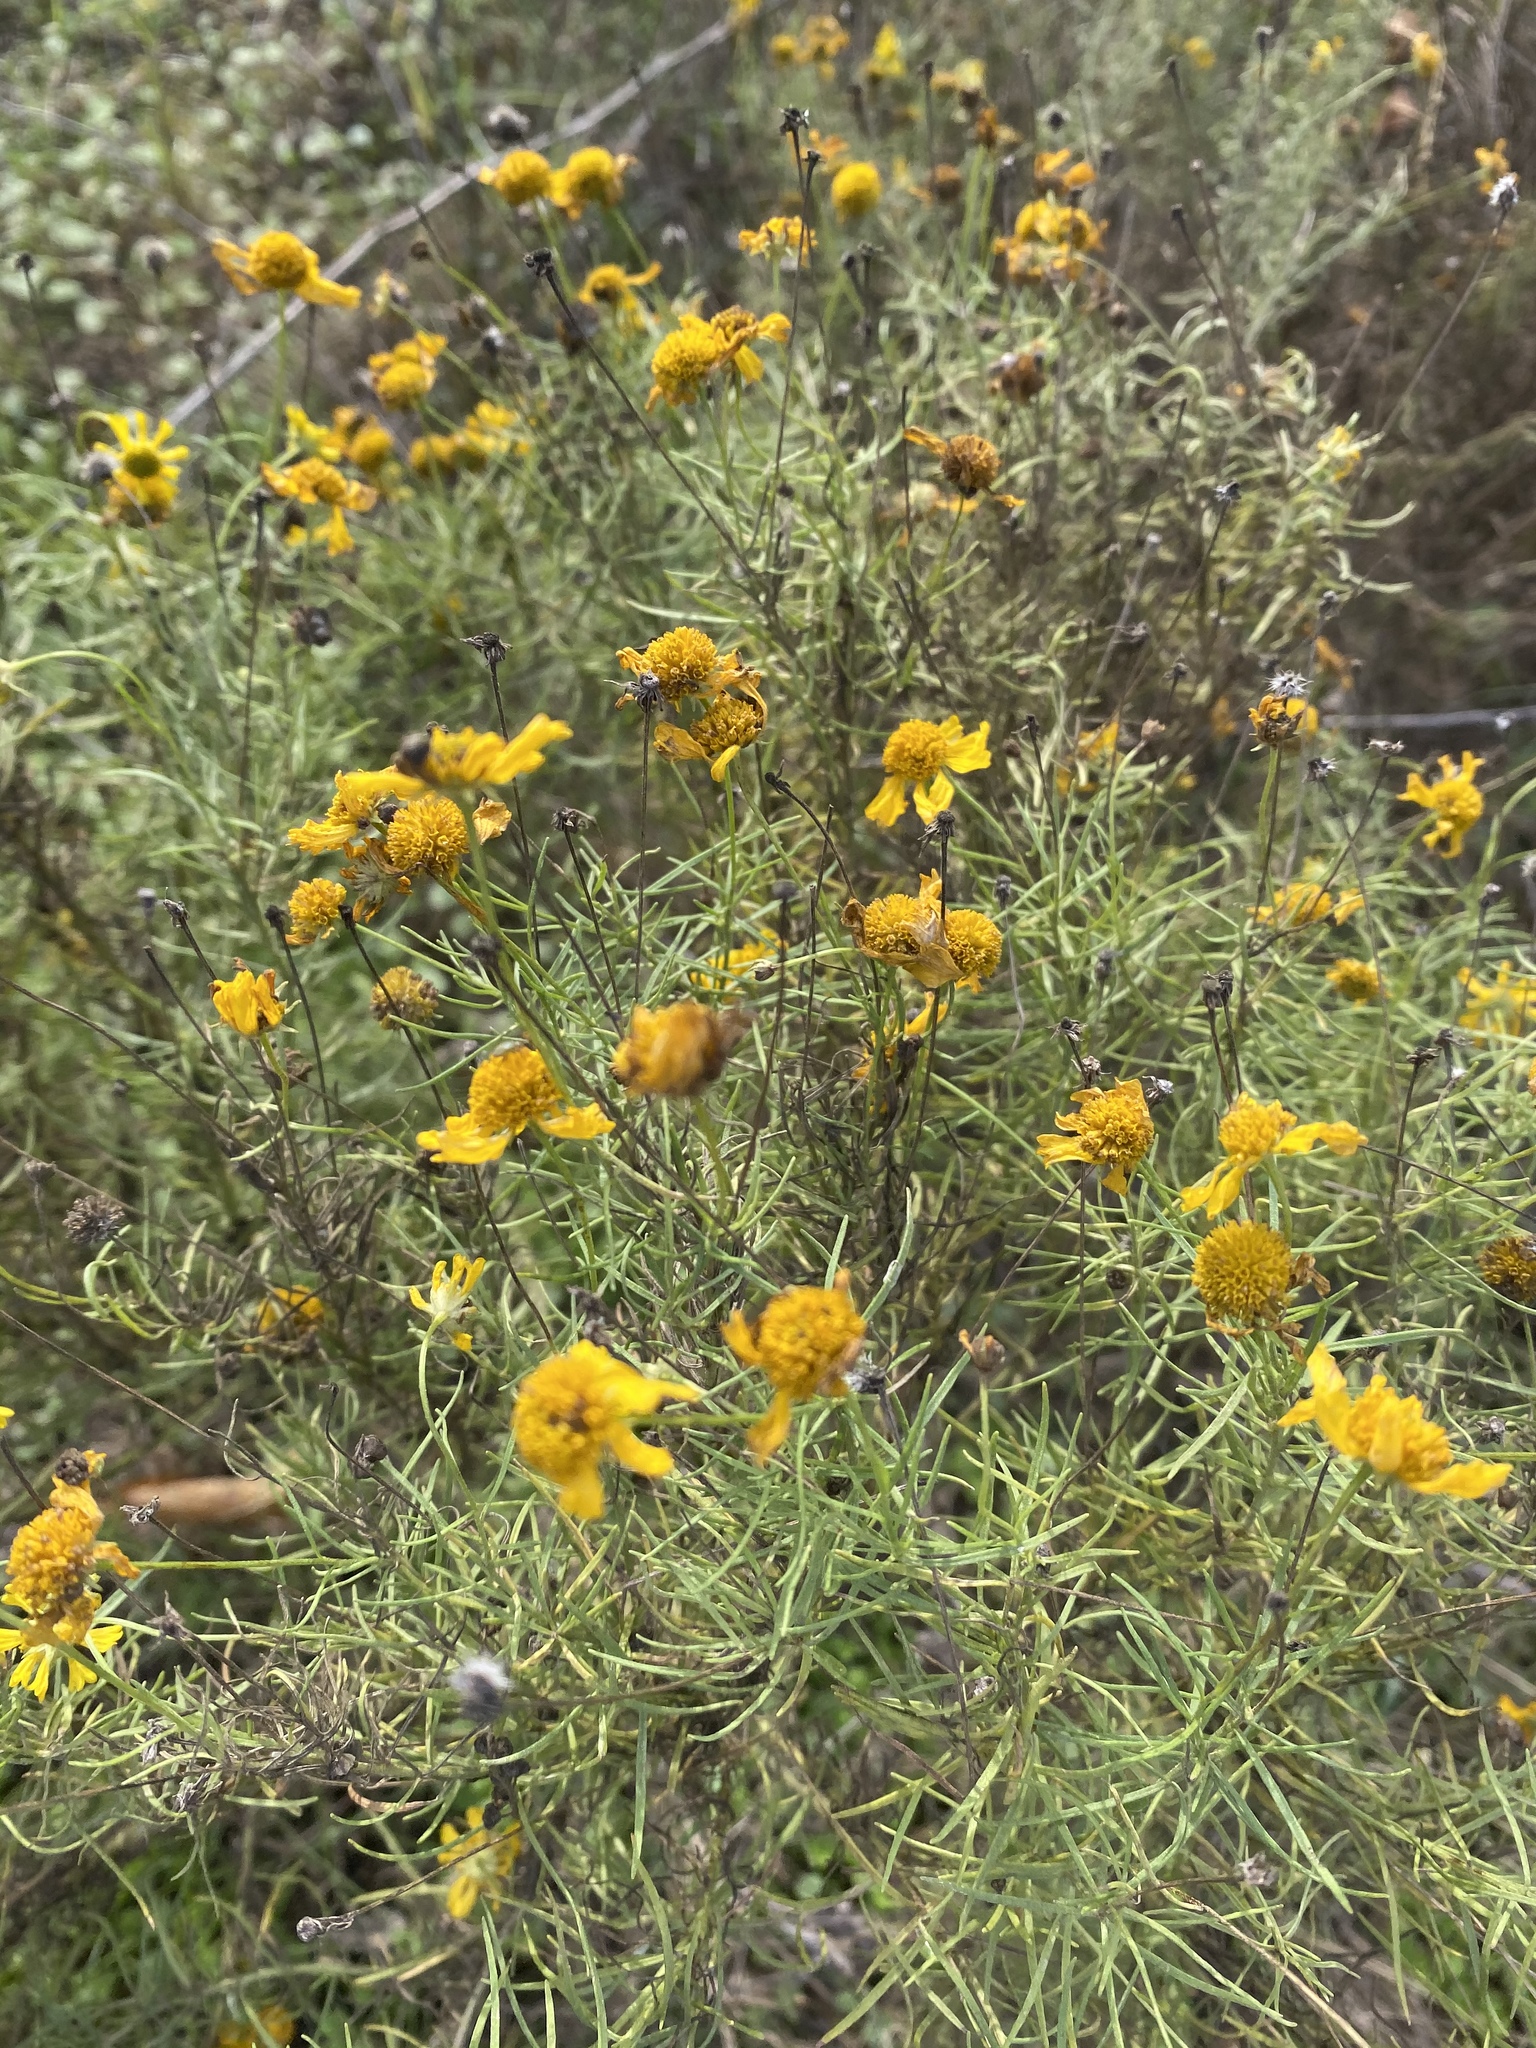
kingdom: Plantae
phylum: Tracheophyta
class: Magnoliopsida
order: Asterales
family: Asteraceae
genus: Helenium
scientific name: Helenium amarum
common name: Bitter sneezeweed
